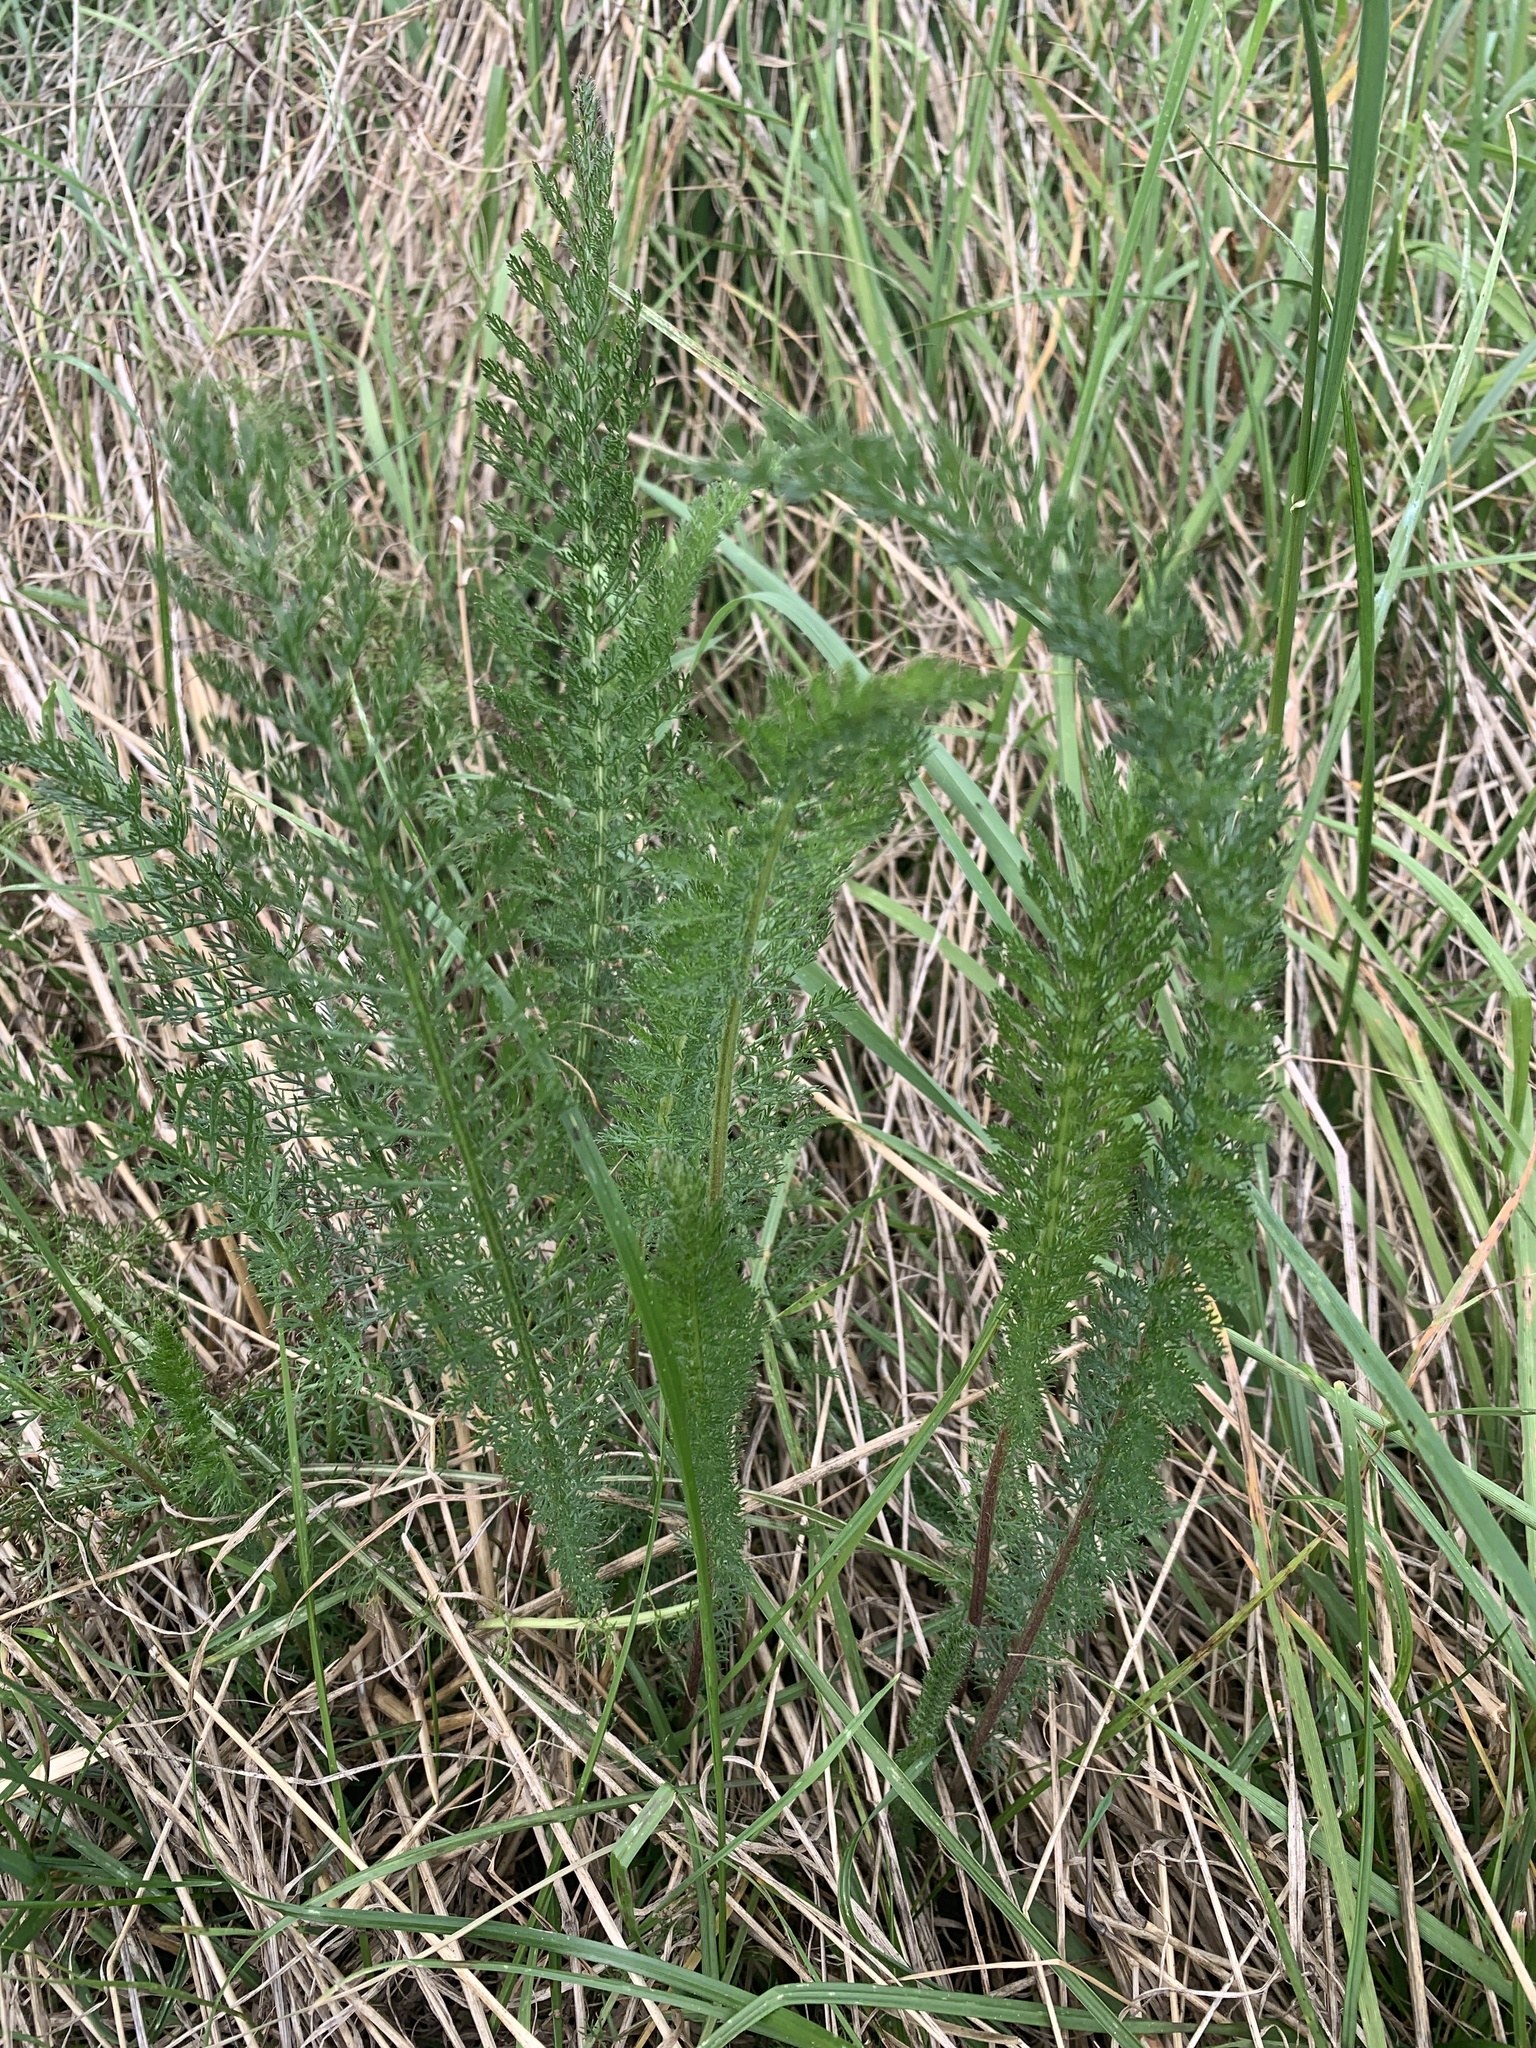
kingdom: Plantae
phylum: Tracheophyta
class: Magnoliopsida
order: Asterales
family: Asteraceae
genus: Achillea
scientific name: Achillea millefolium
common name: Yarrow
